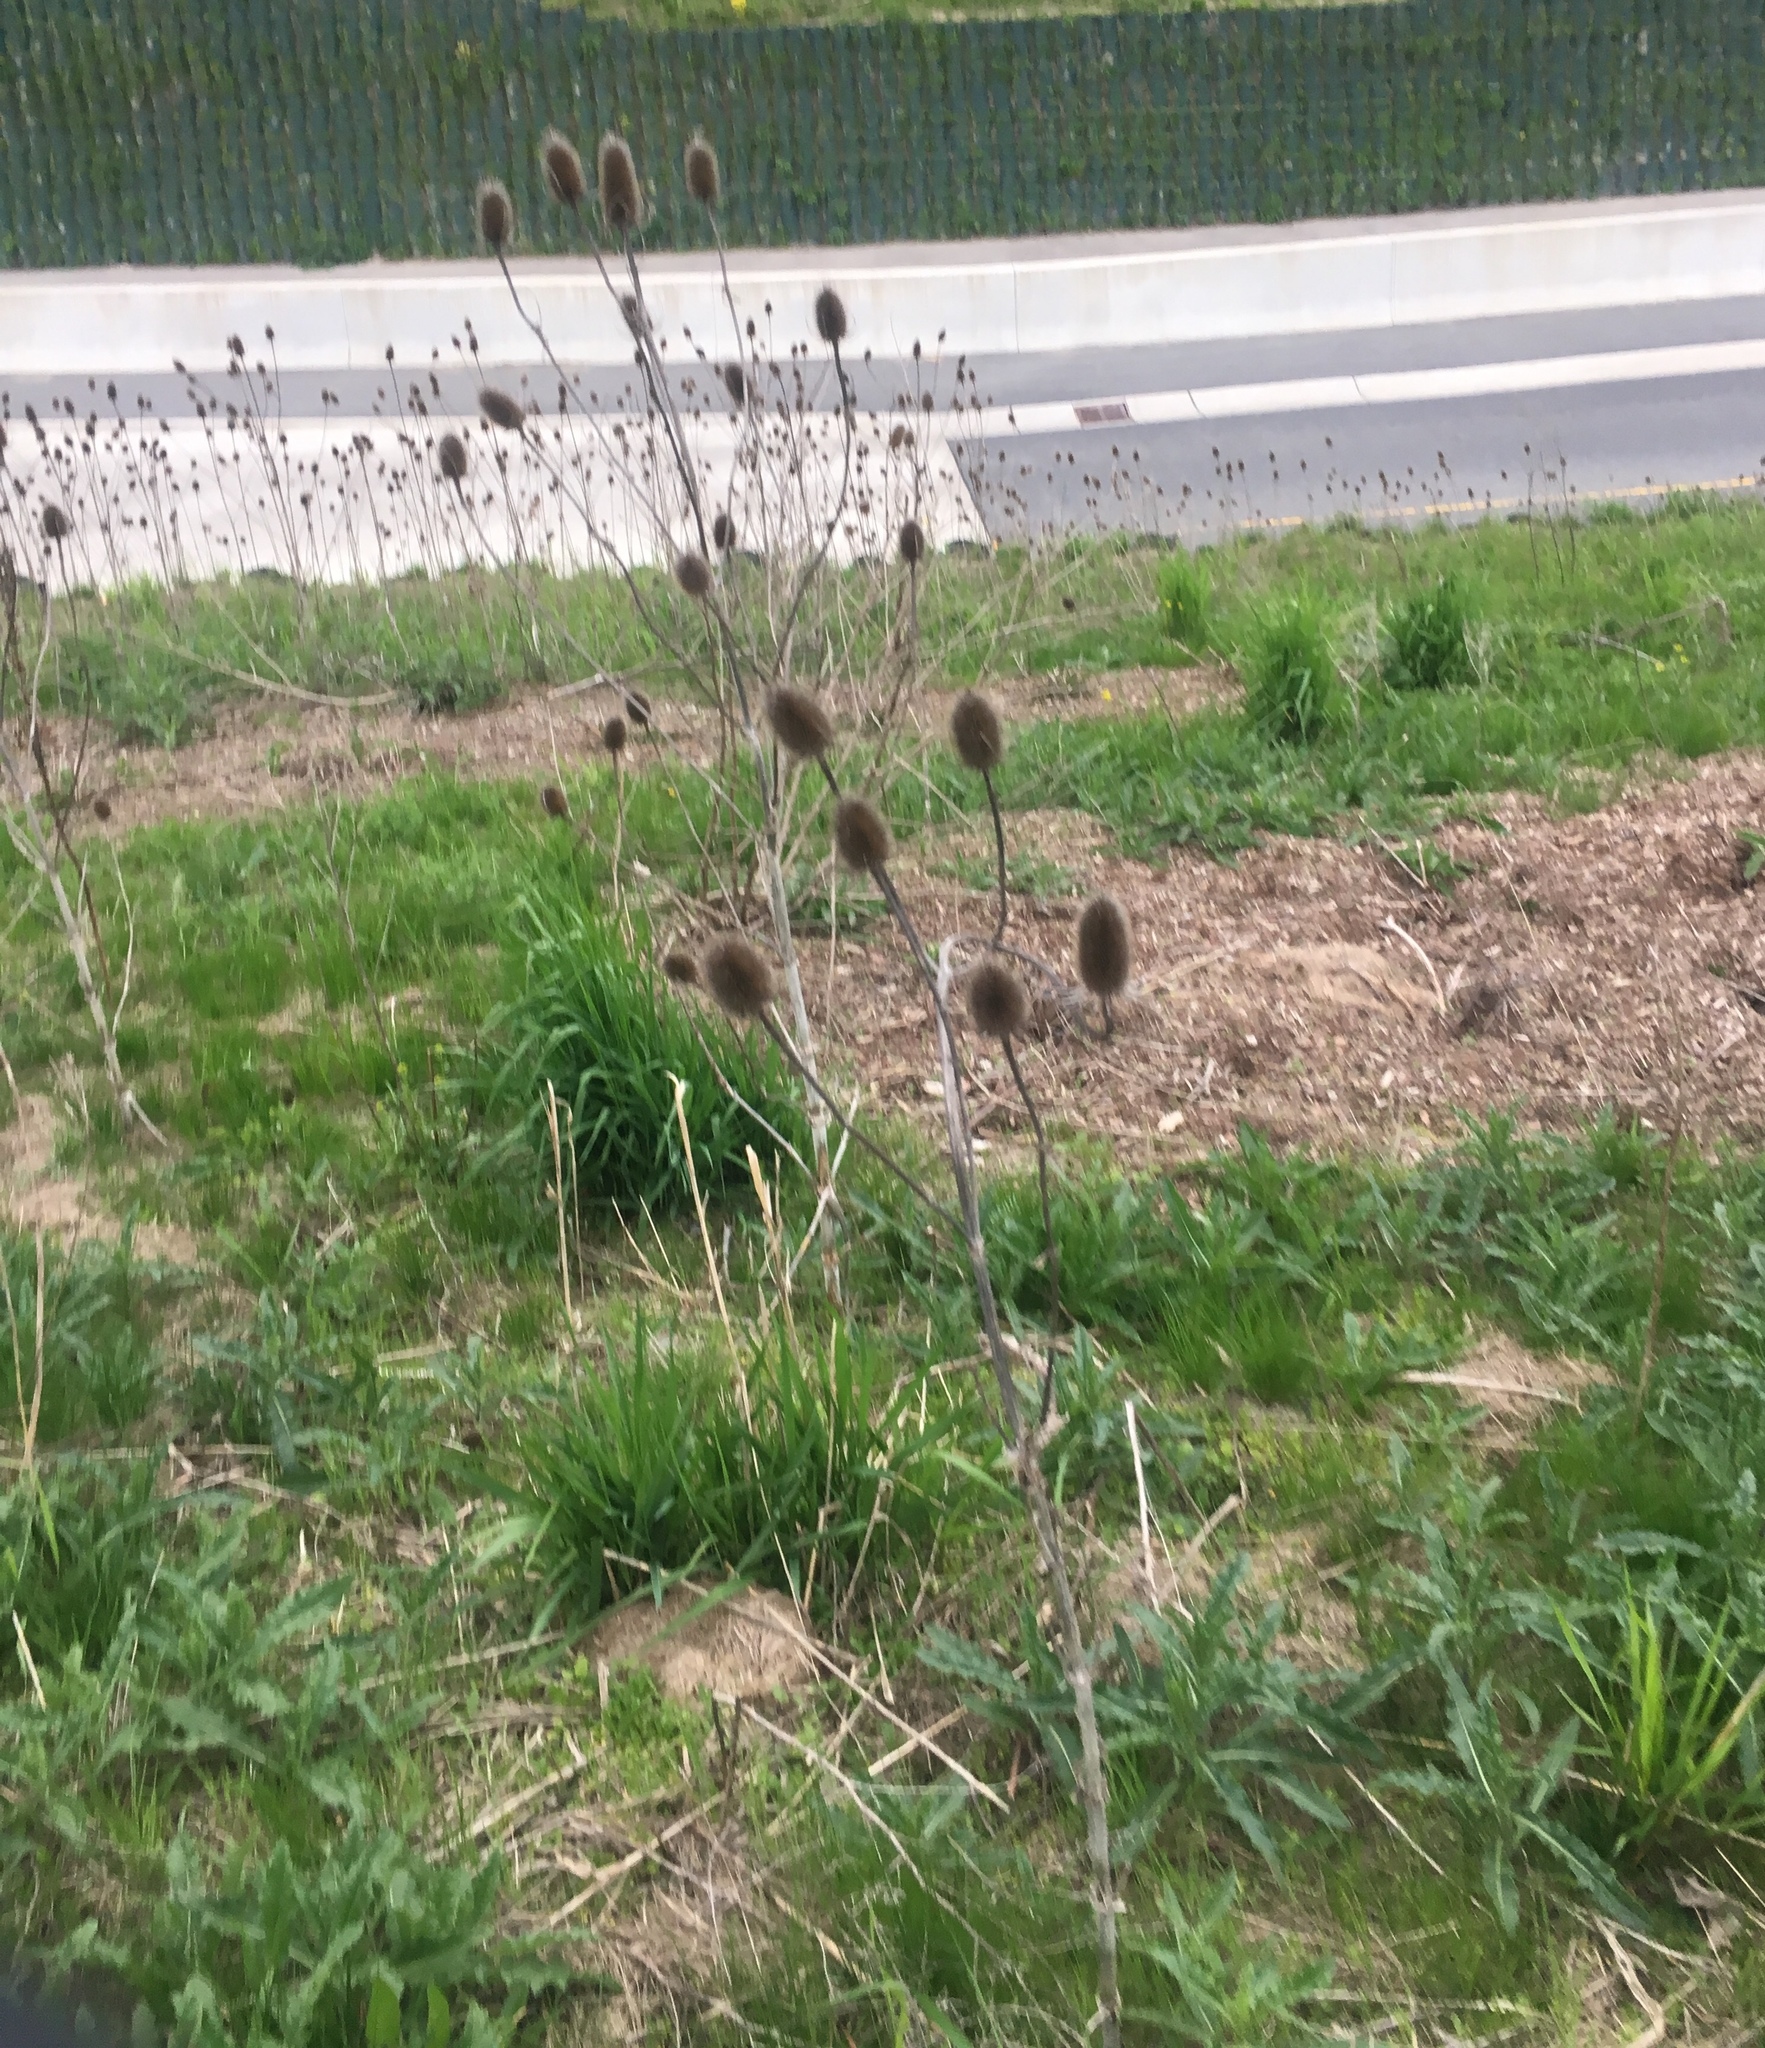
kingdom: Plantae
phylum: Tracheophyta
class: Magnoliopsida
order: Dipsacales
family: Caprifoliaceae
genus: Dipsacus
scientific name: Dipsacus fullonum
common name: Teasel
